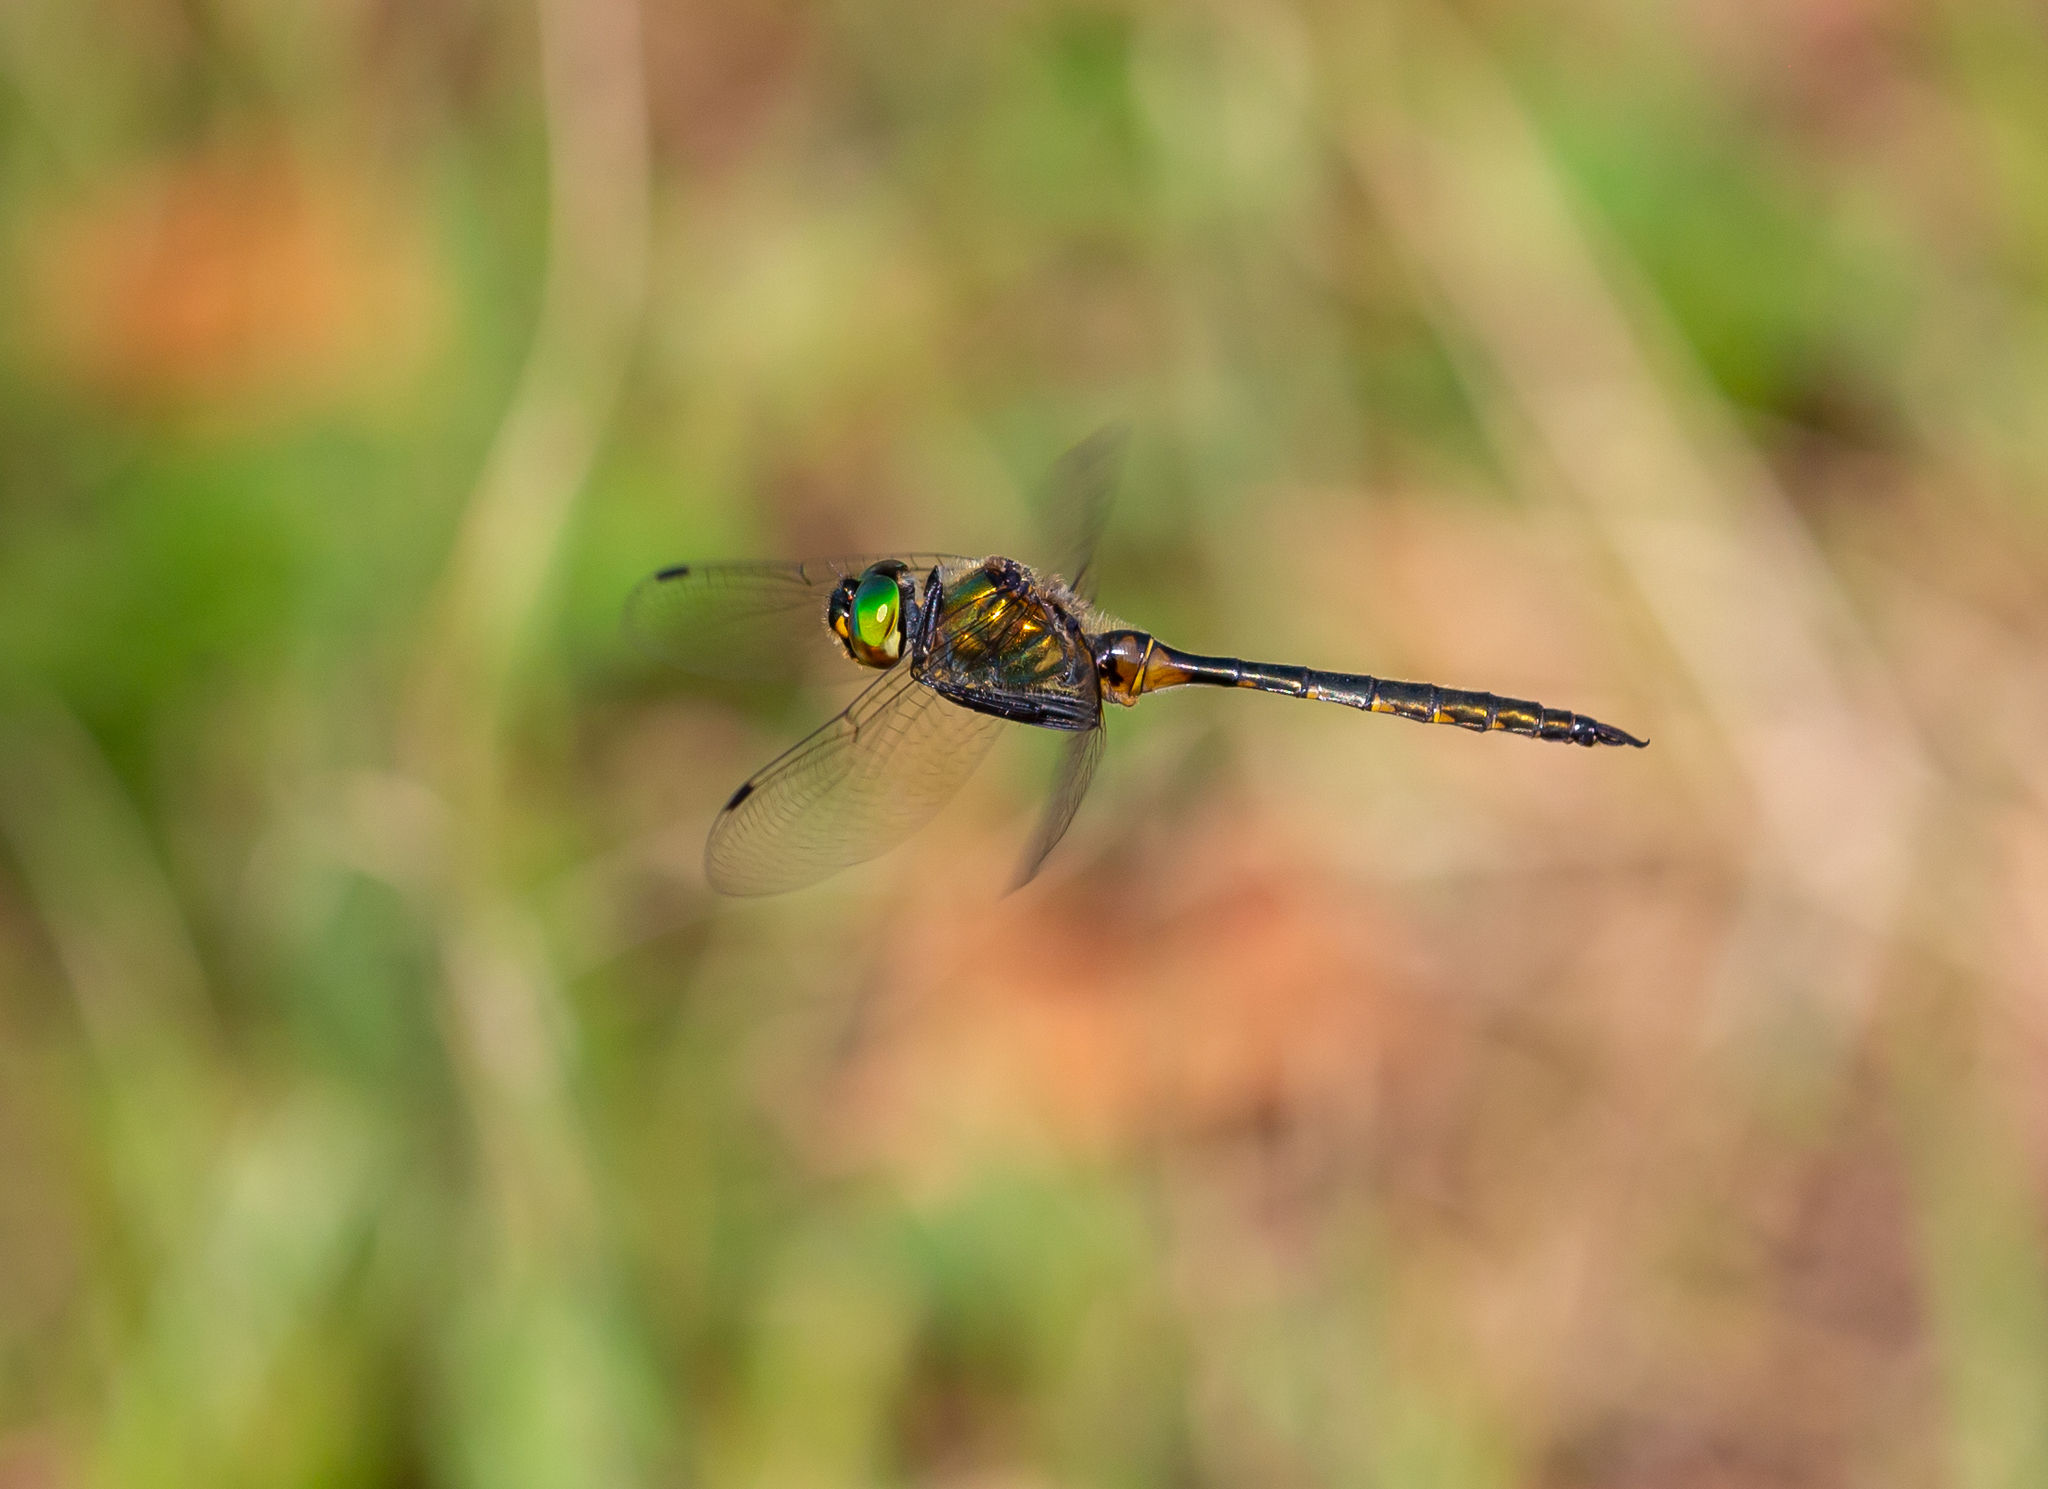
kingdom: Animalia
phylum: Arthropoda
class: Insecta
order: Odonata
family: Corduliidae
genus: Somatochlora
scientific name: Somatochlora flavomaculata
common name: Yellow-spotted emerald
